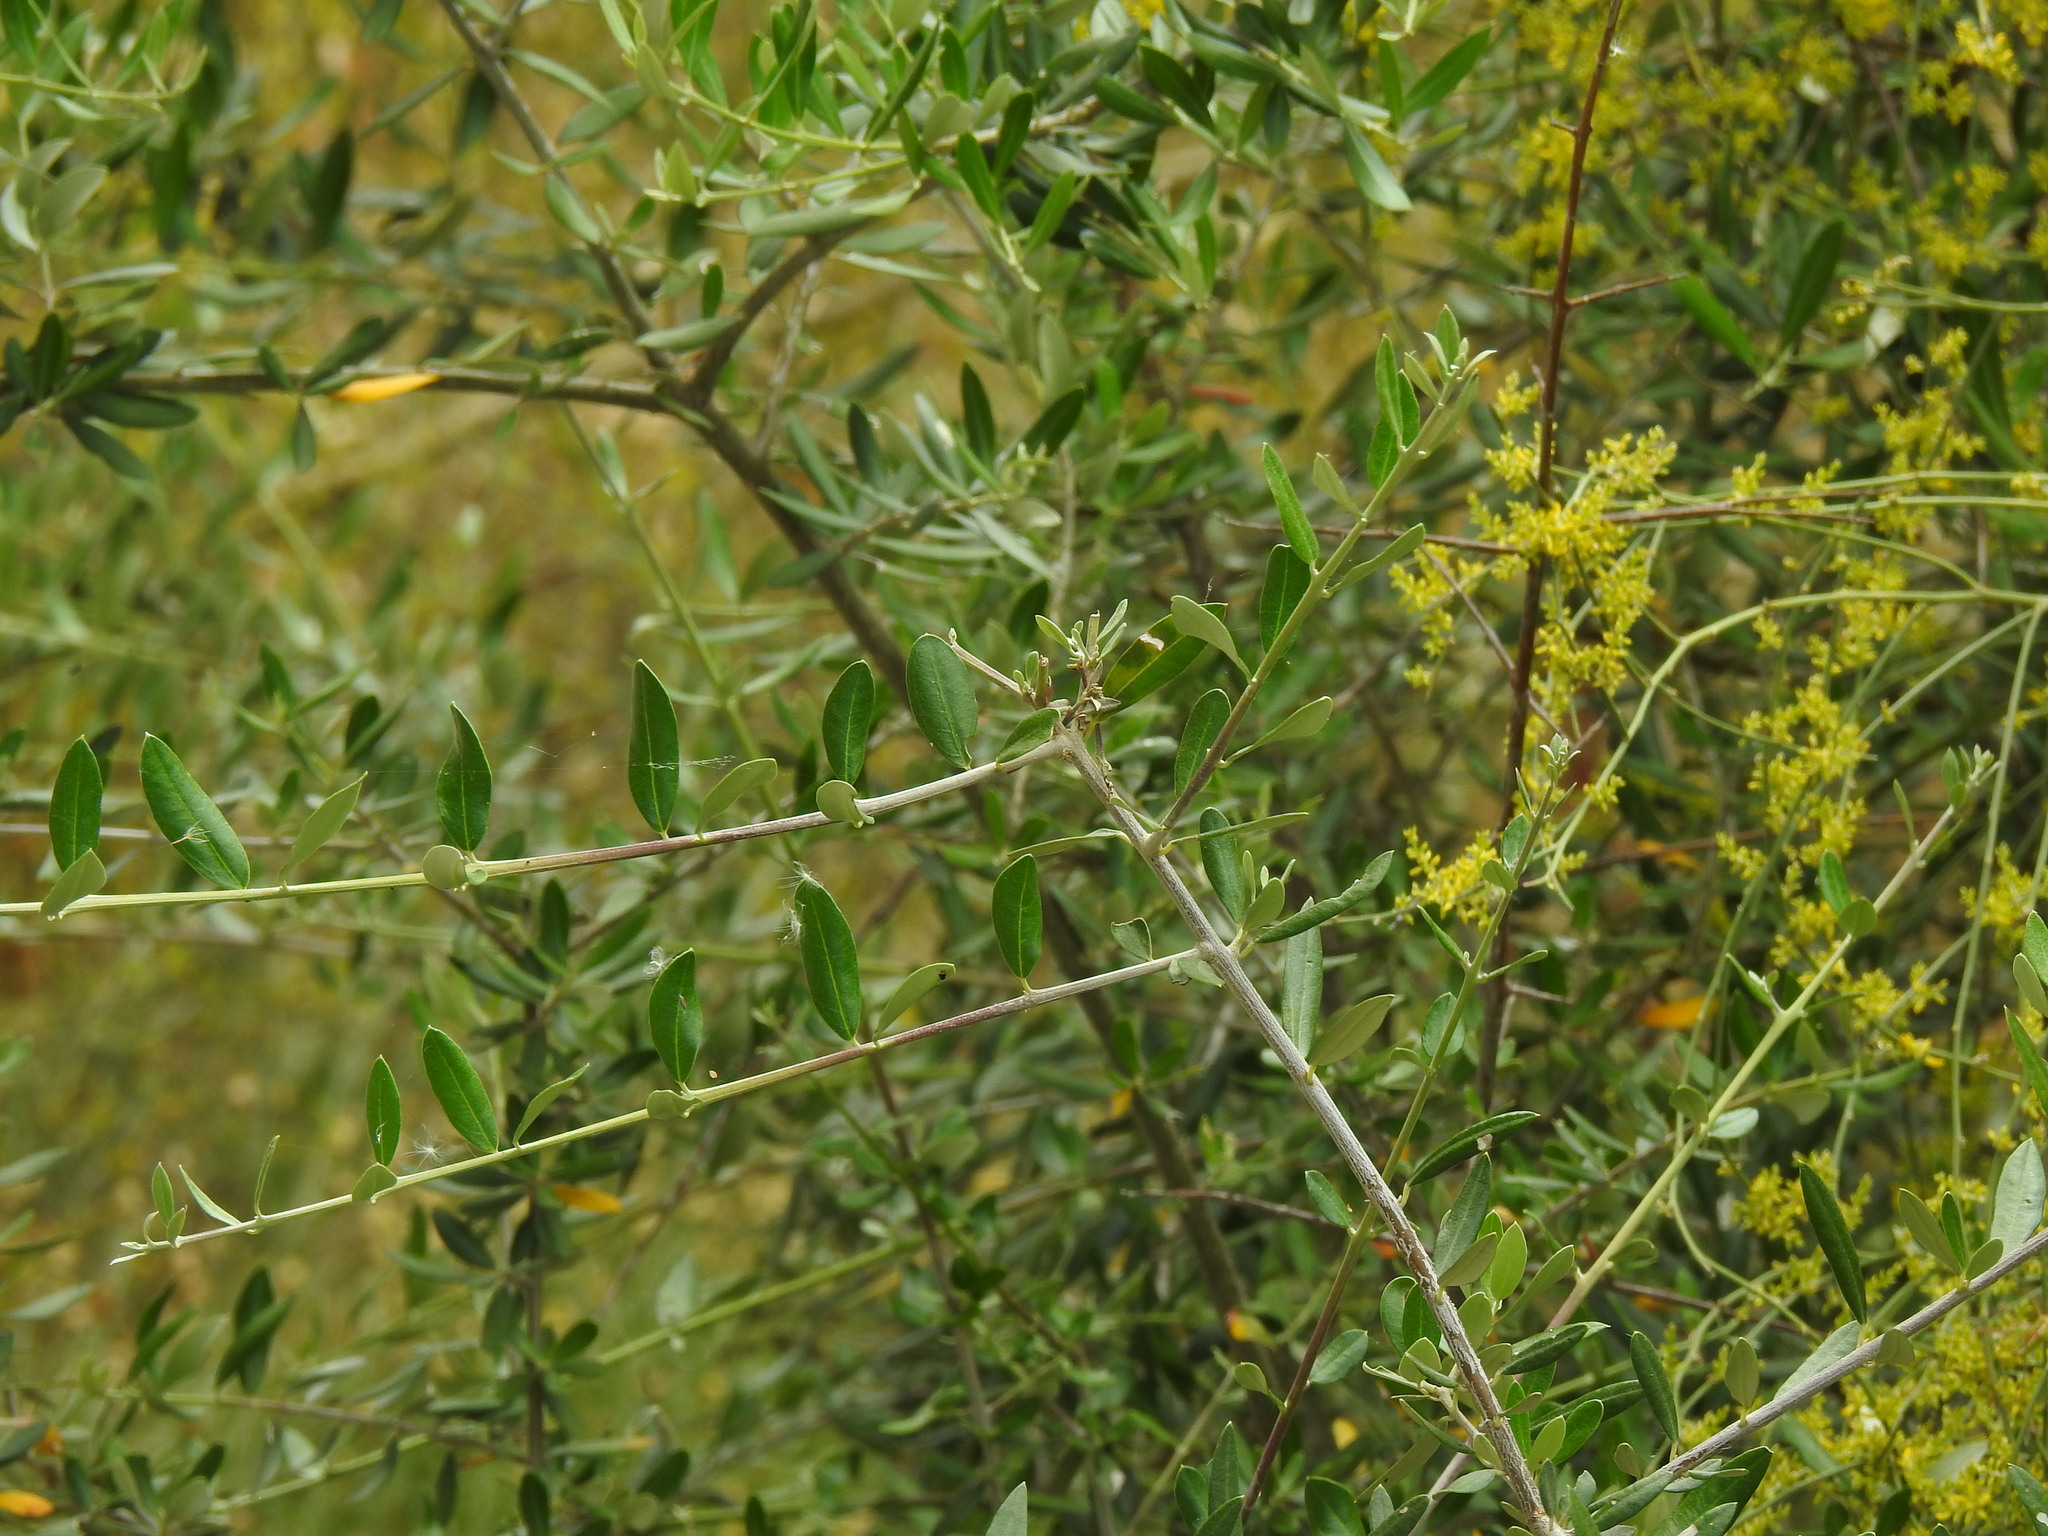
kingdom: Plantae
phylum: Tracheophyta
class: Magnoliopsida
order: Lamiales
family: Oleaceae
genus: Olea
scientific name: Olea europaea
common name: Olive
